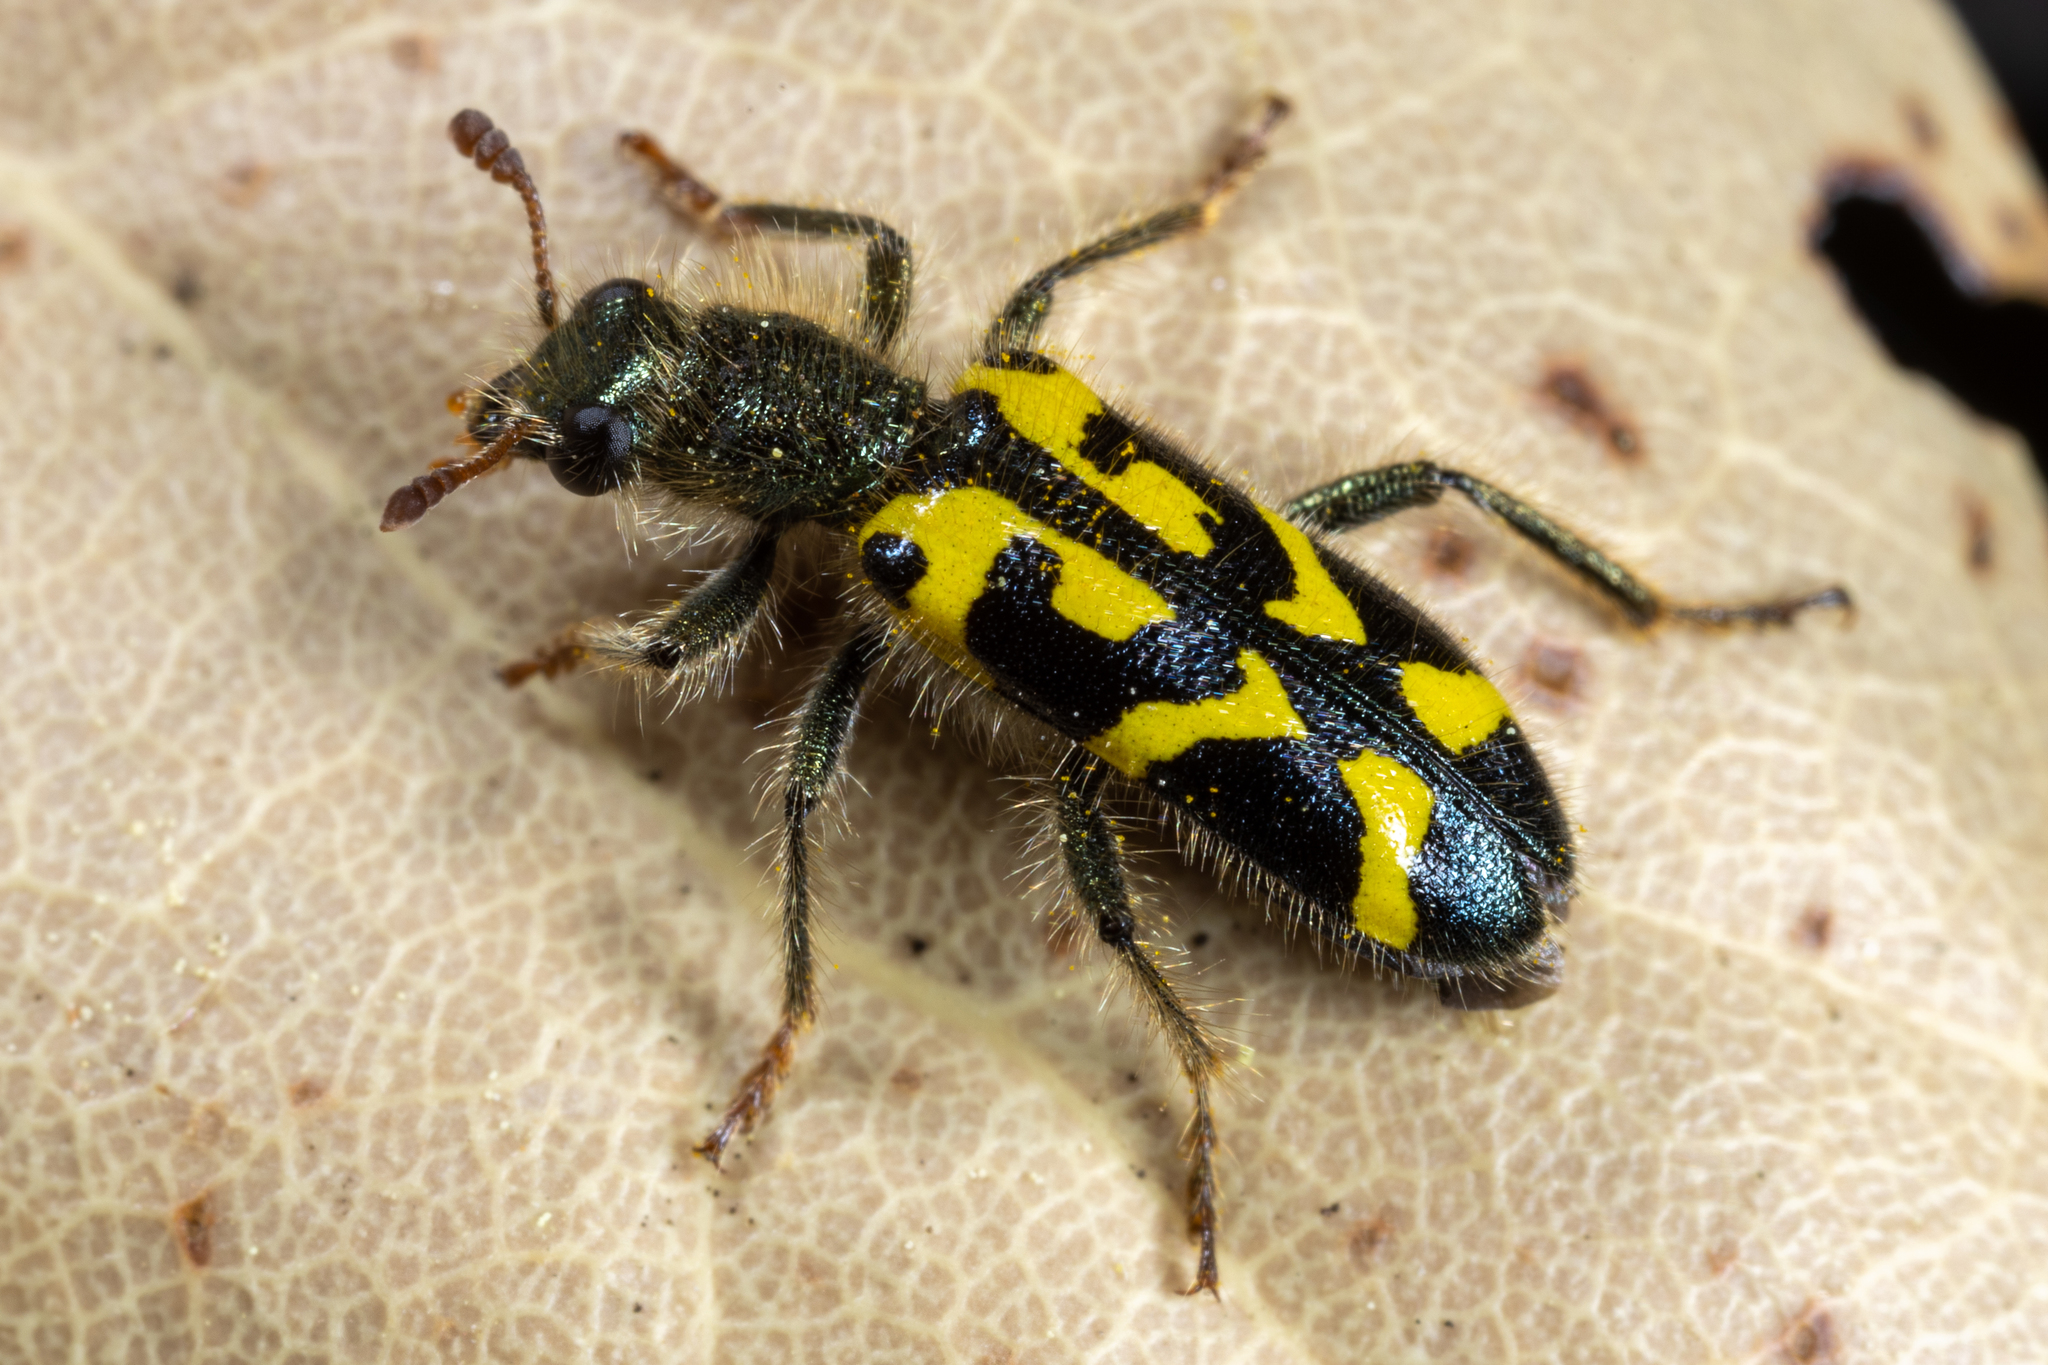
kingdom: Animalia
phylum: Arthropoda
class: Insecta
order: Coleoptera
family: Cleridae
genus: Trichodes
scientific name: Trichodes ornatus
